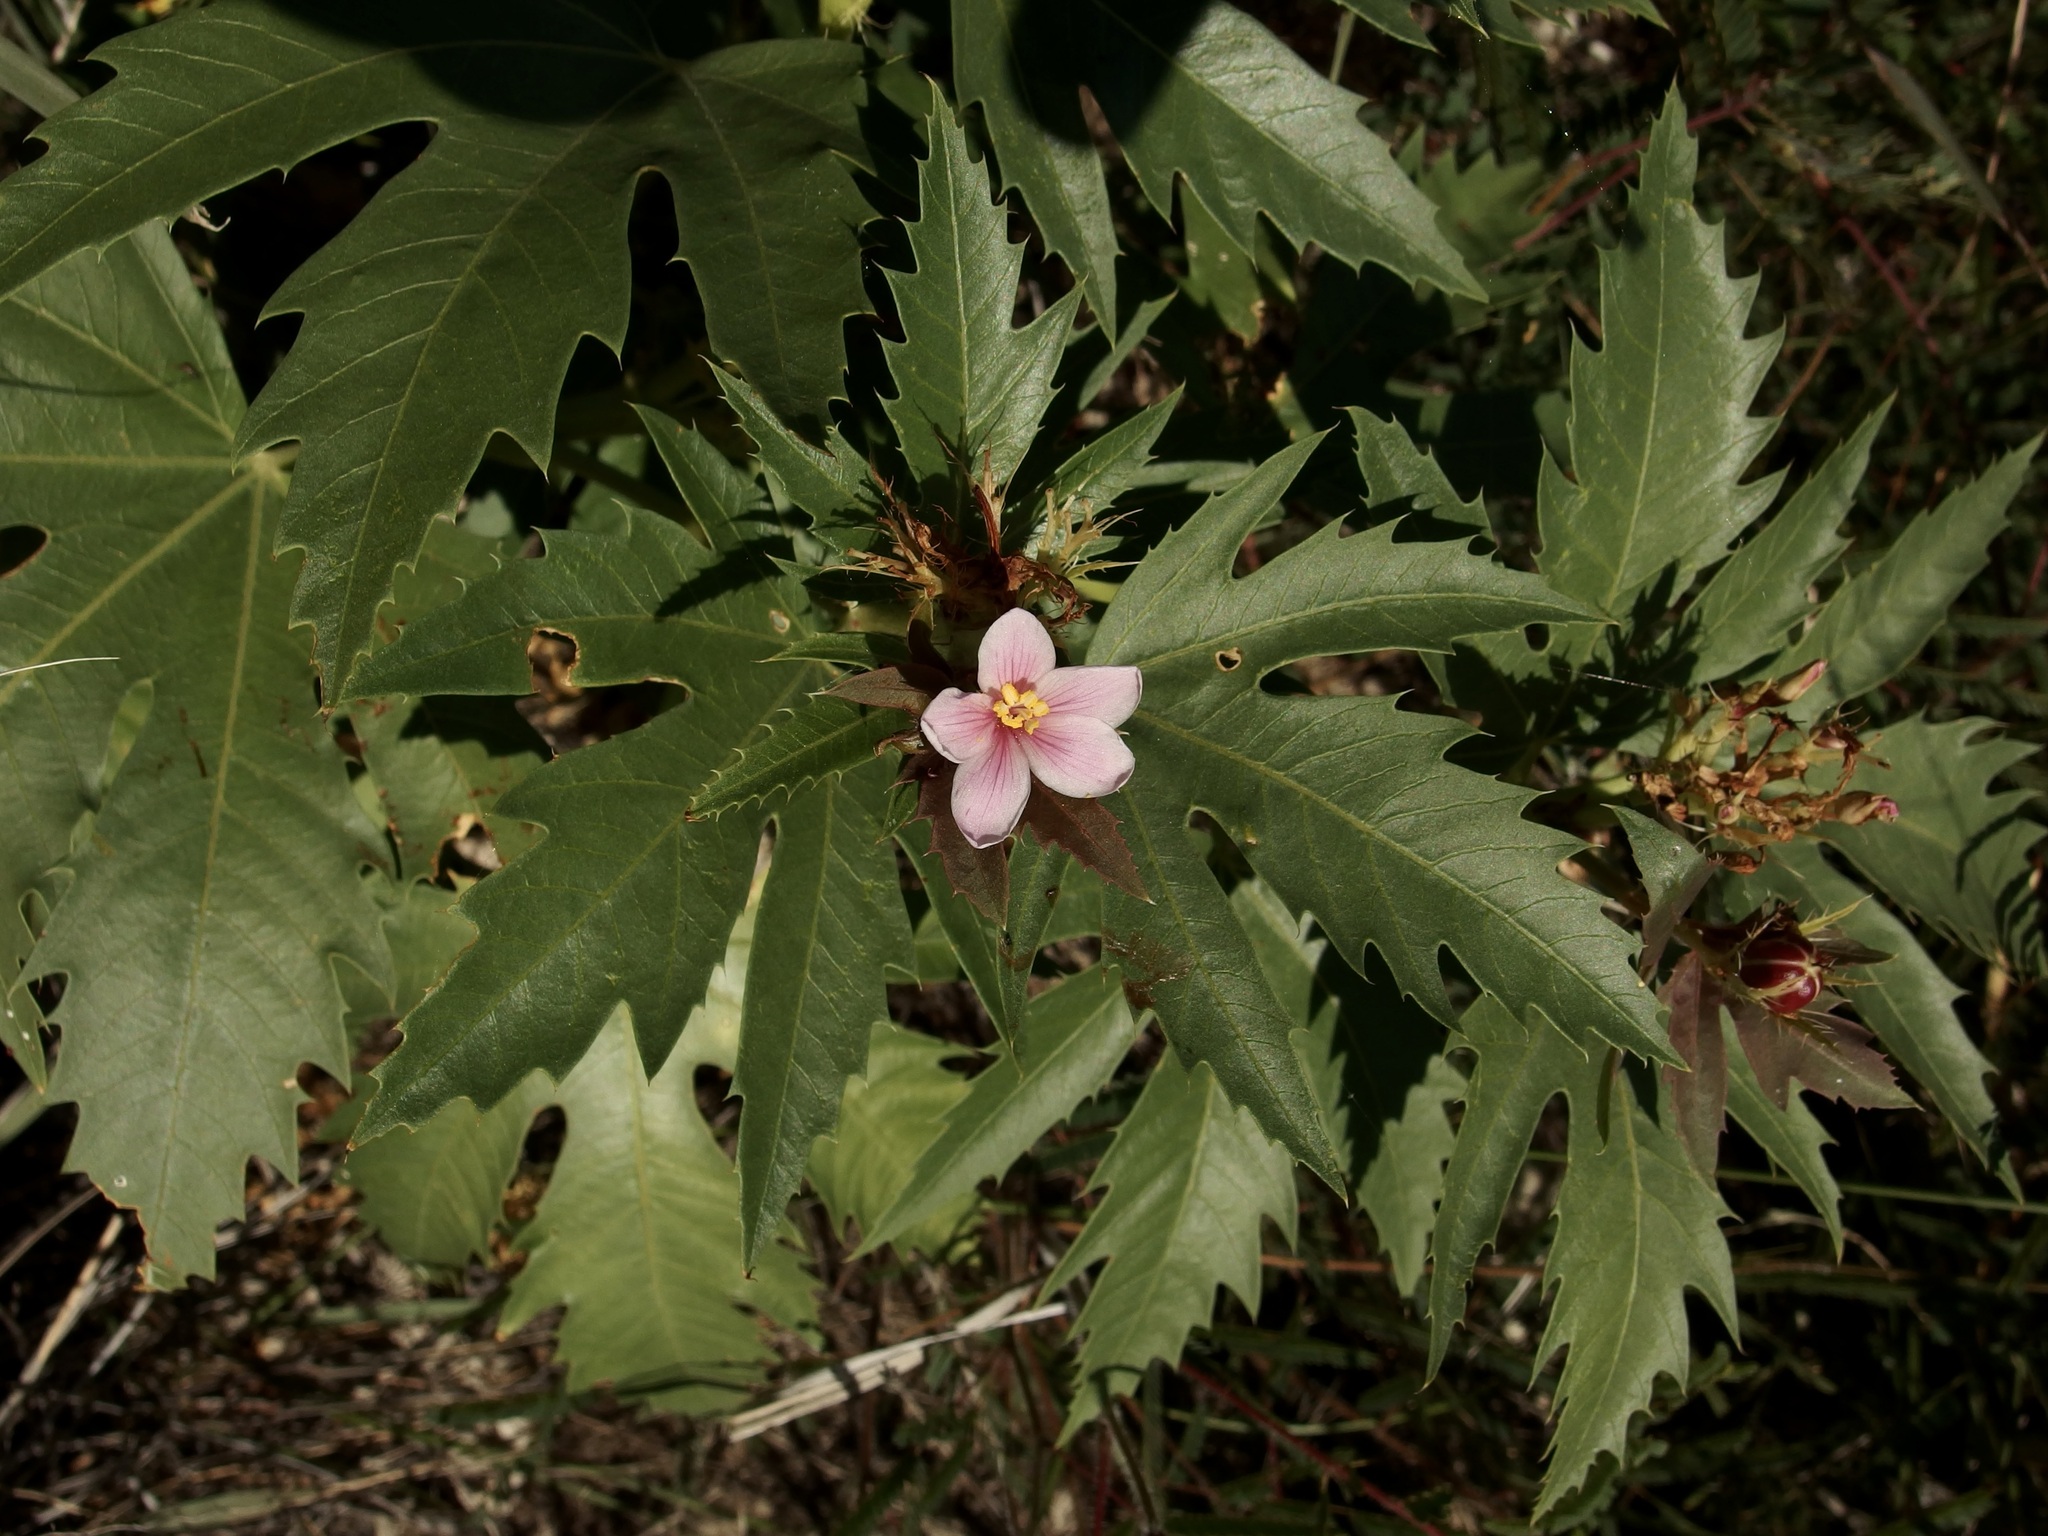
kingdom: Plantae
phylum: Tracheophyta
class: Magnoliopsida
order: Malpighiales
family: Euphorbiaceae
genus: Jatropha
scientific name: Jatropha macrorhiza
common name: Ragged nettlespurge
